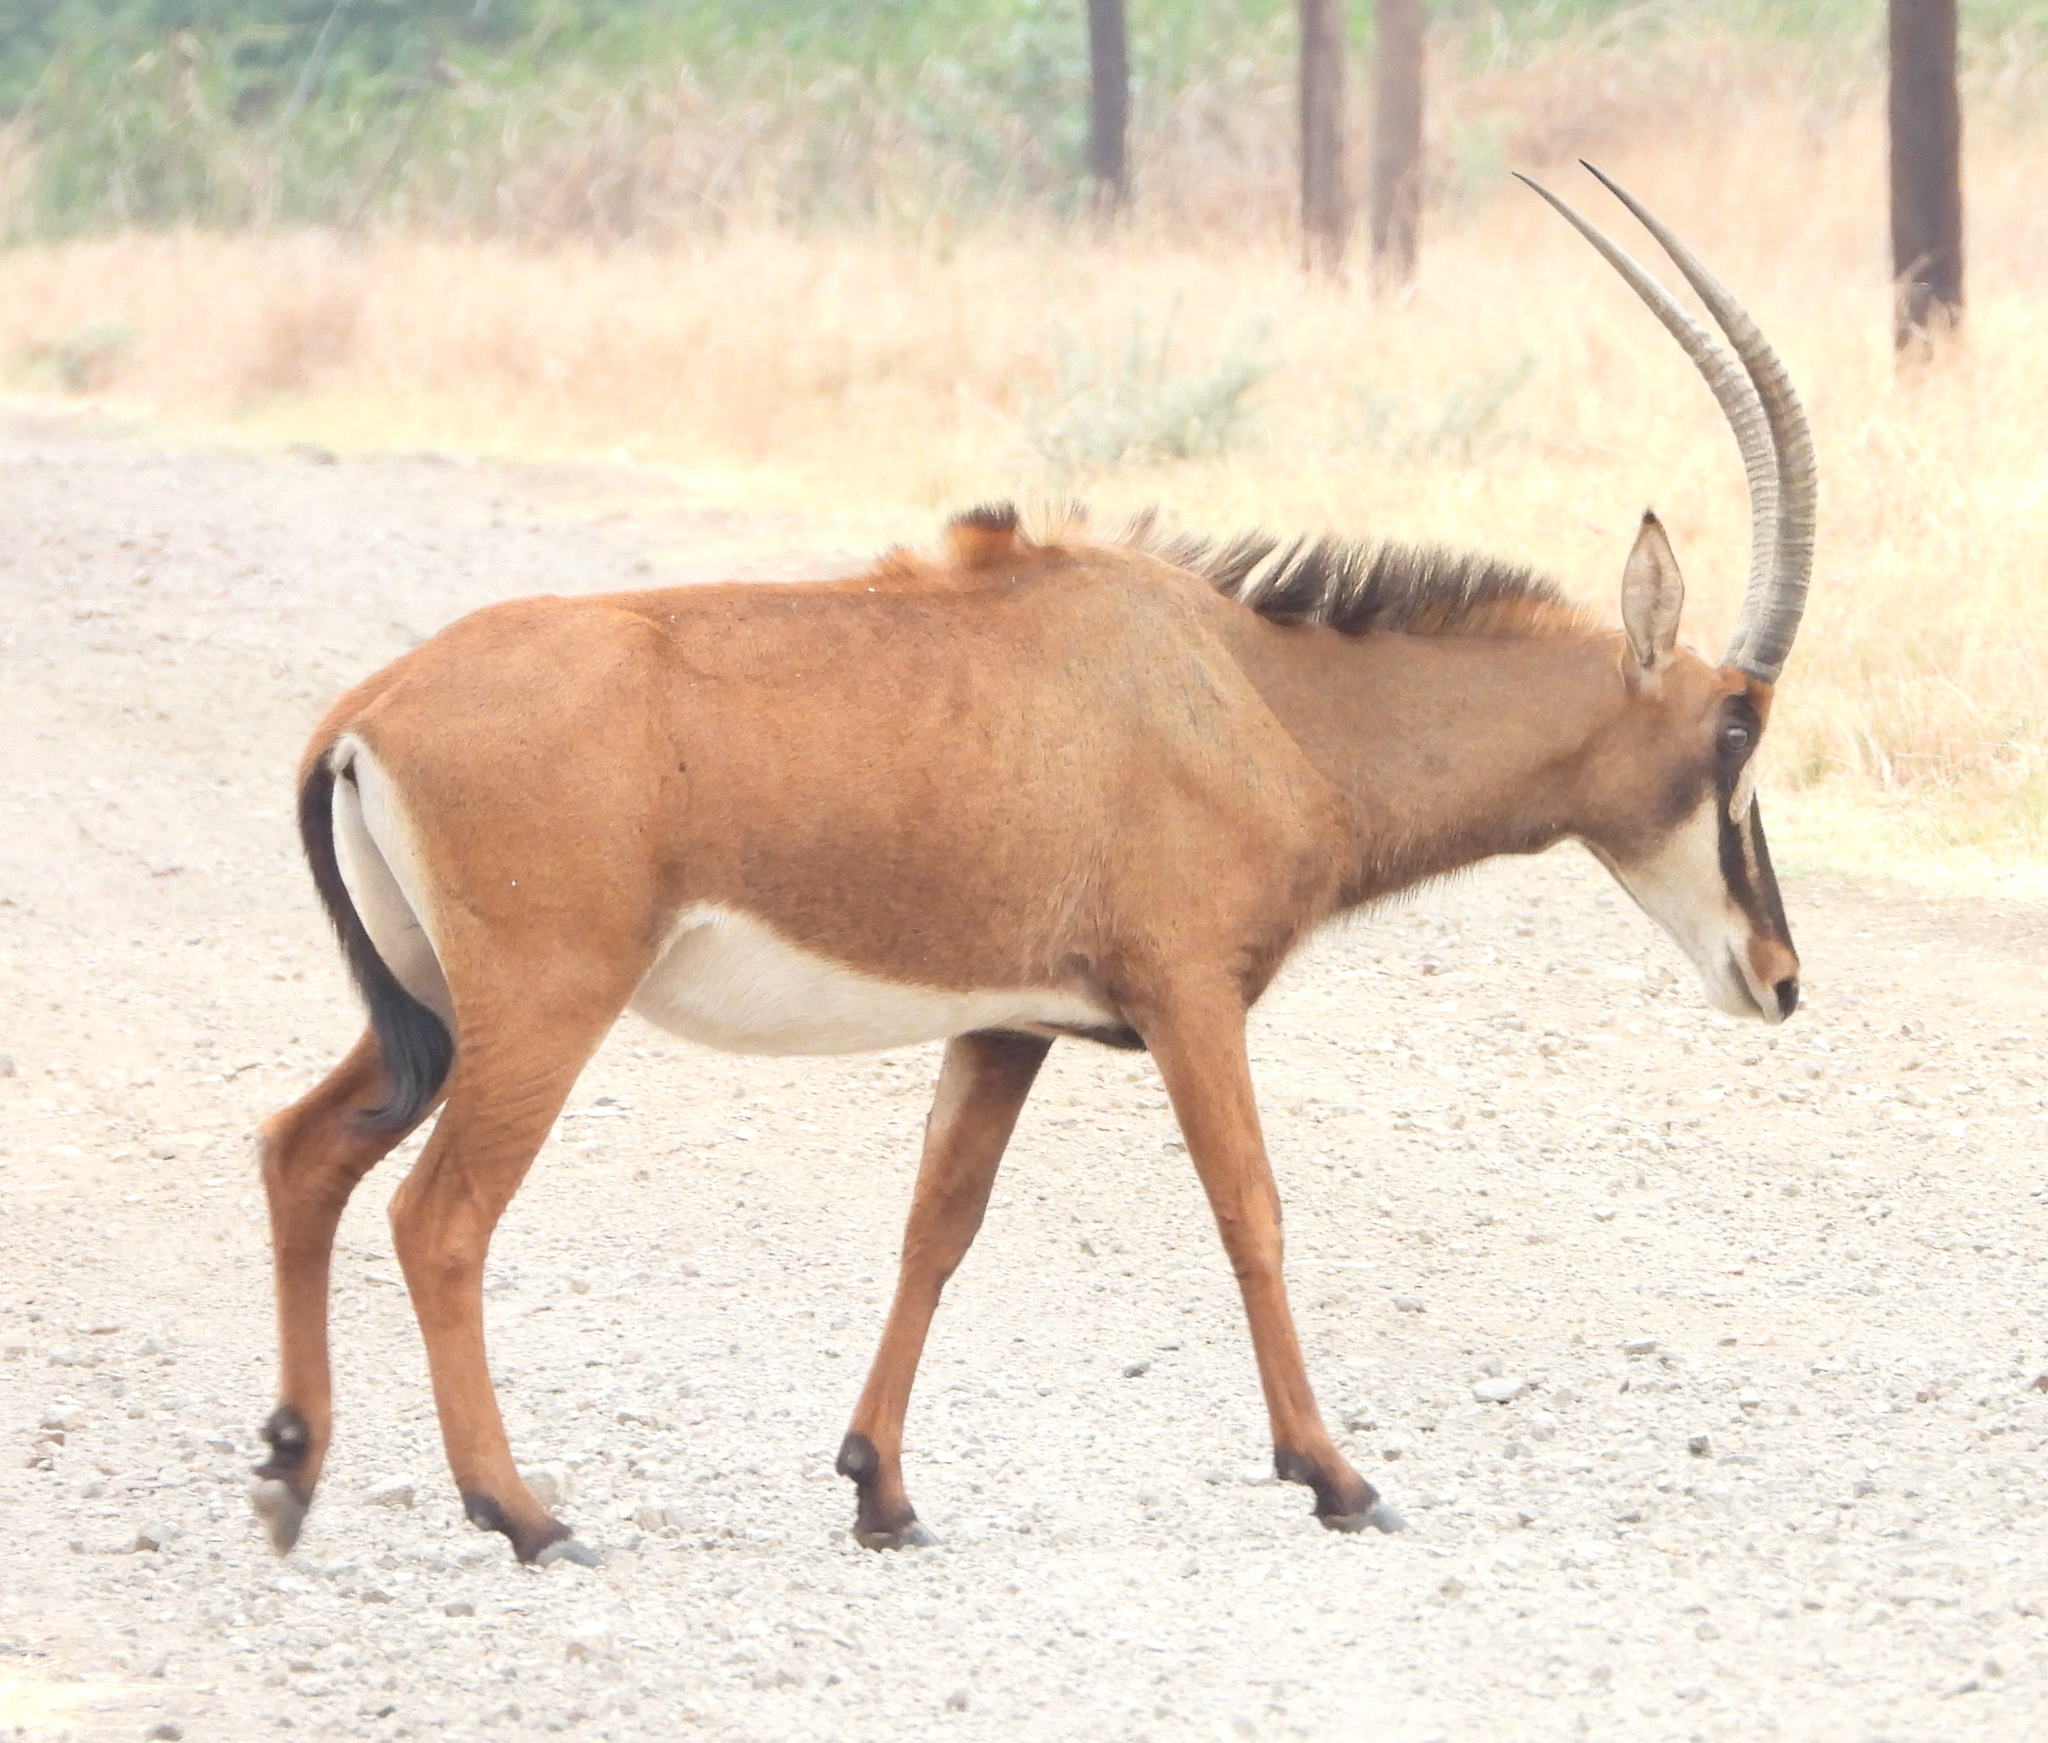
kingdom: Animalia
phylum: Chordata
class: Mammalia
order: Artiodactyla
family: Bovidae
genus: Hippotragus
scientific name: Hippotragus niger
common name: Sable antelope
